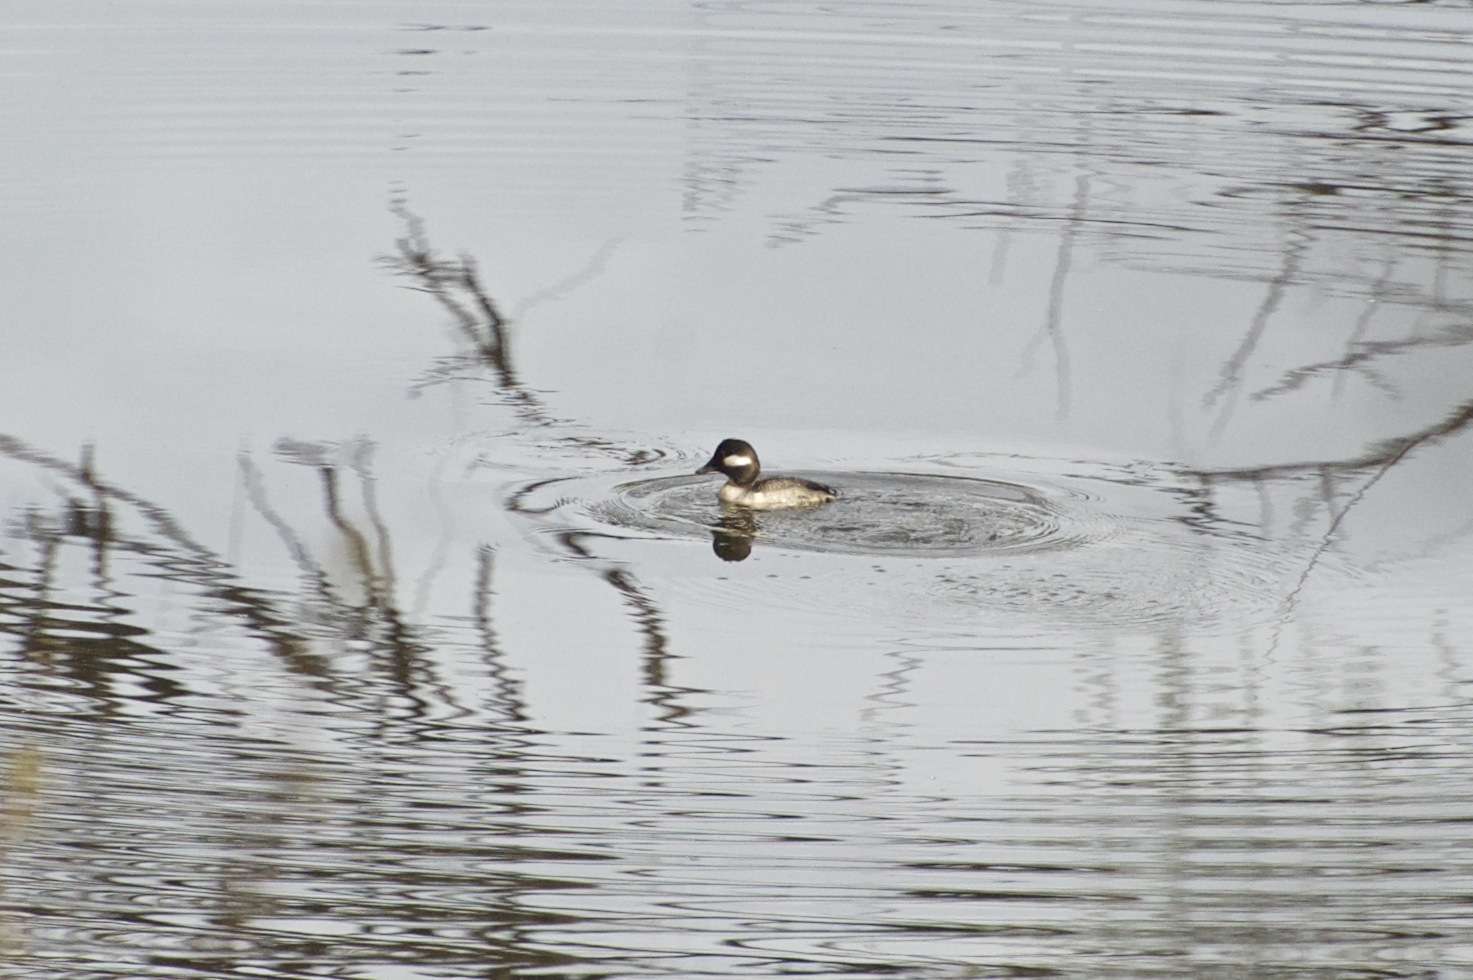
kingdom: Animalia
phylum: Chordata
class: Aves
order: Anseriformes
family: Anatidae
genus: Bucephala
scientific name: Bucephala albeola
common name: Bufflehead
